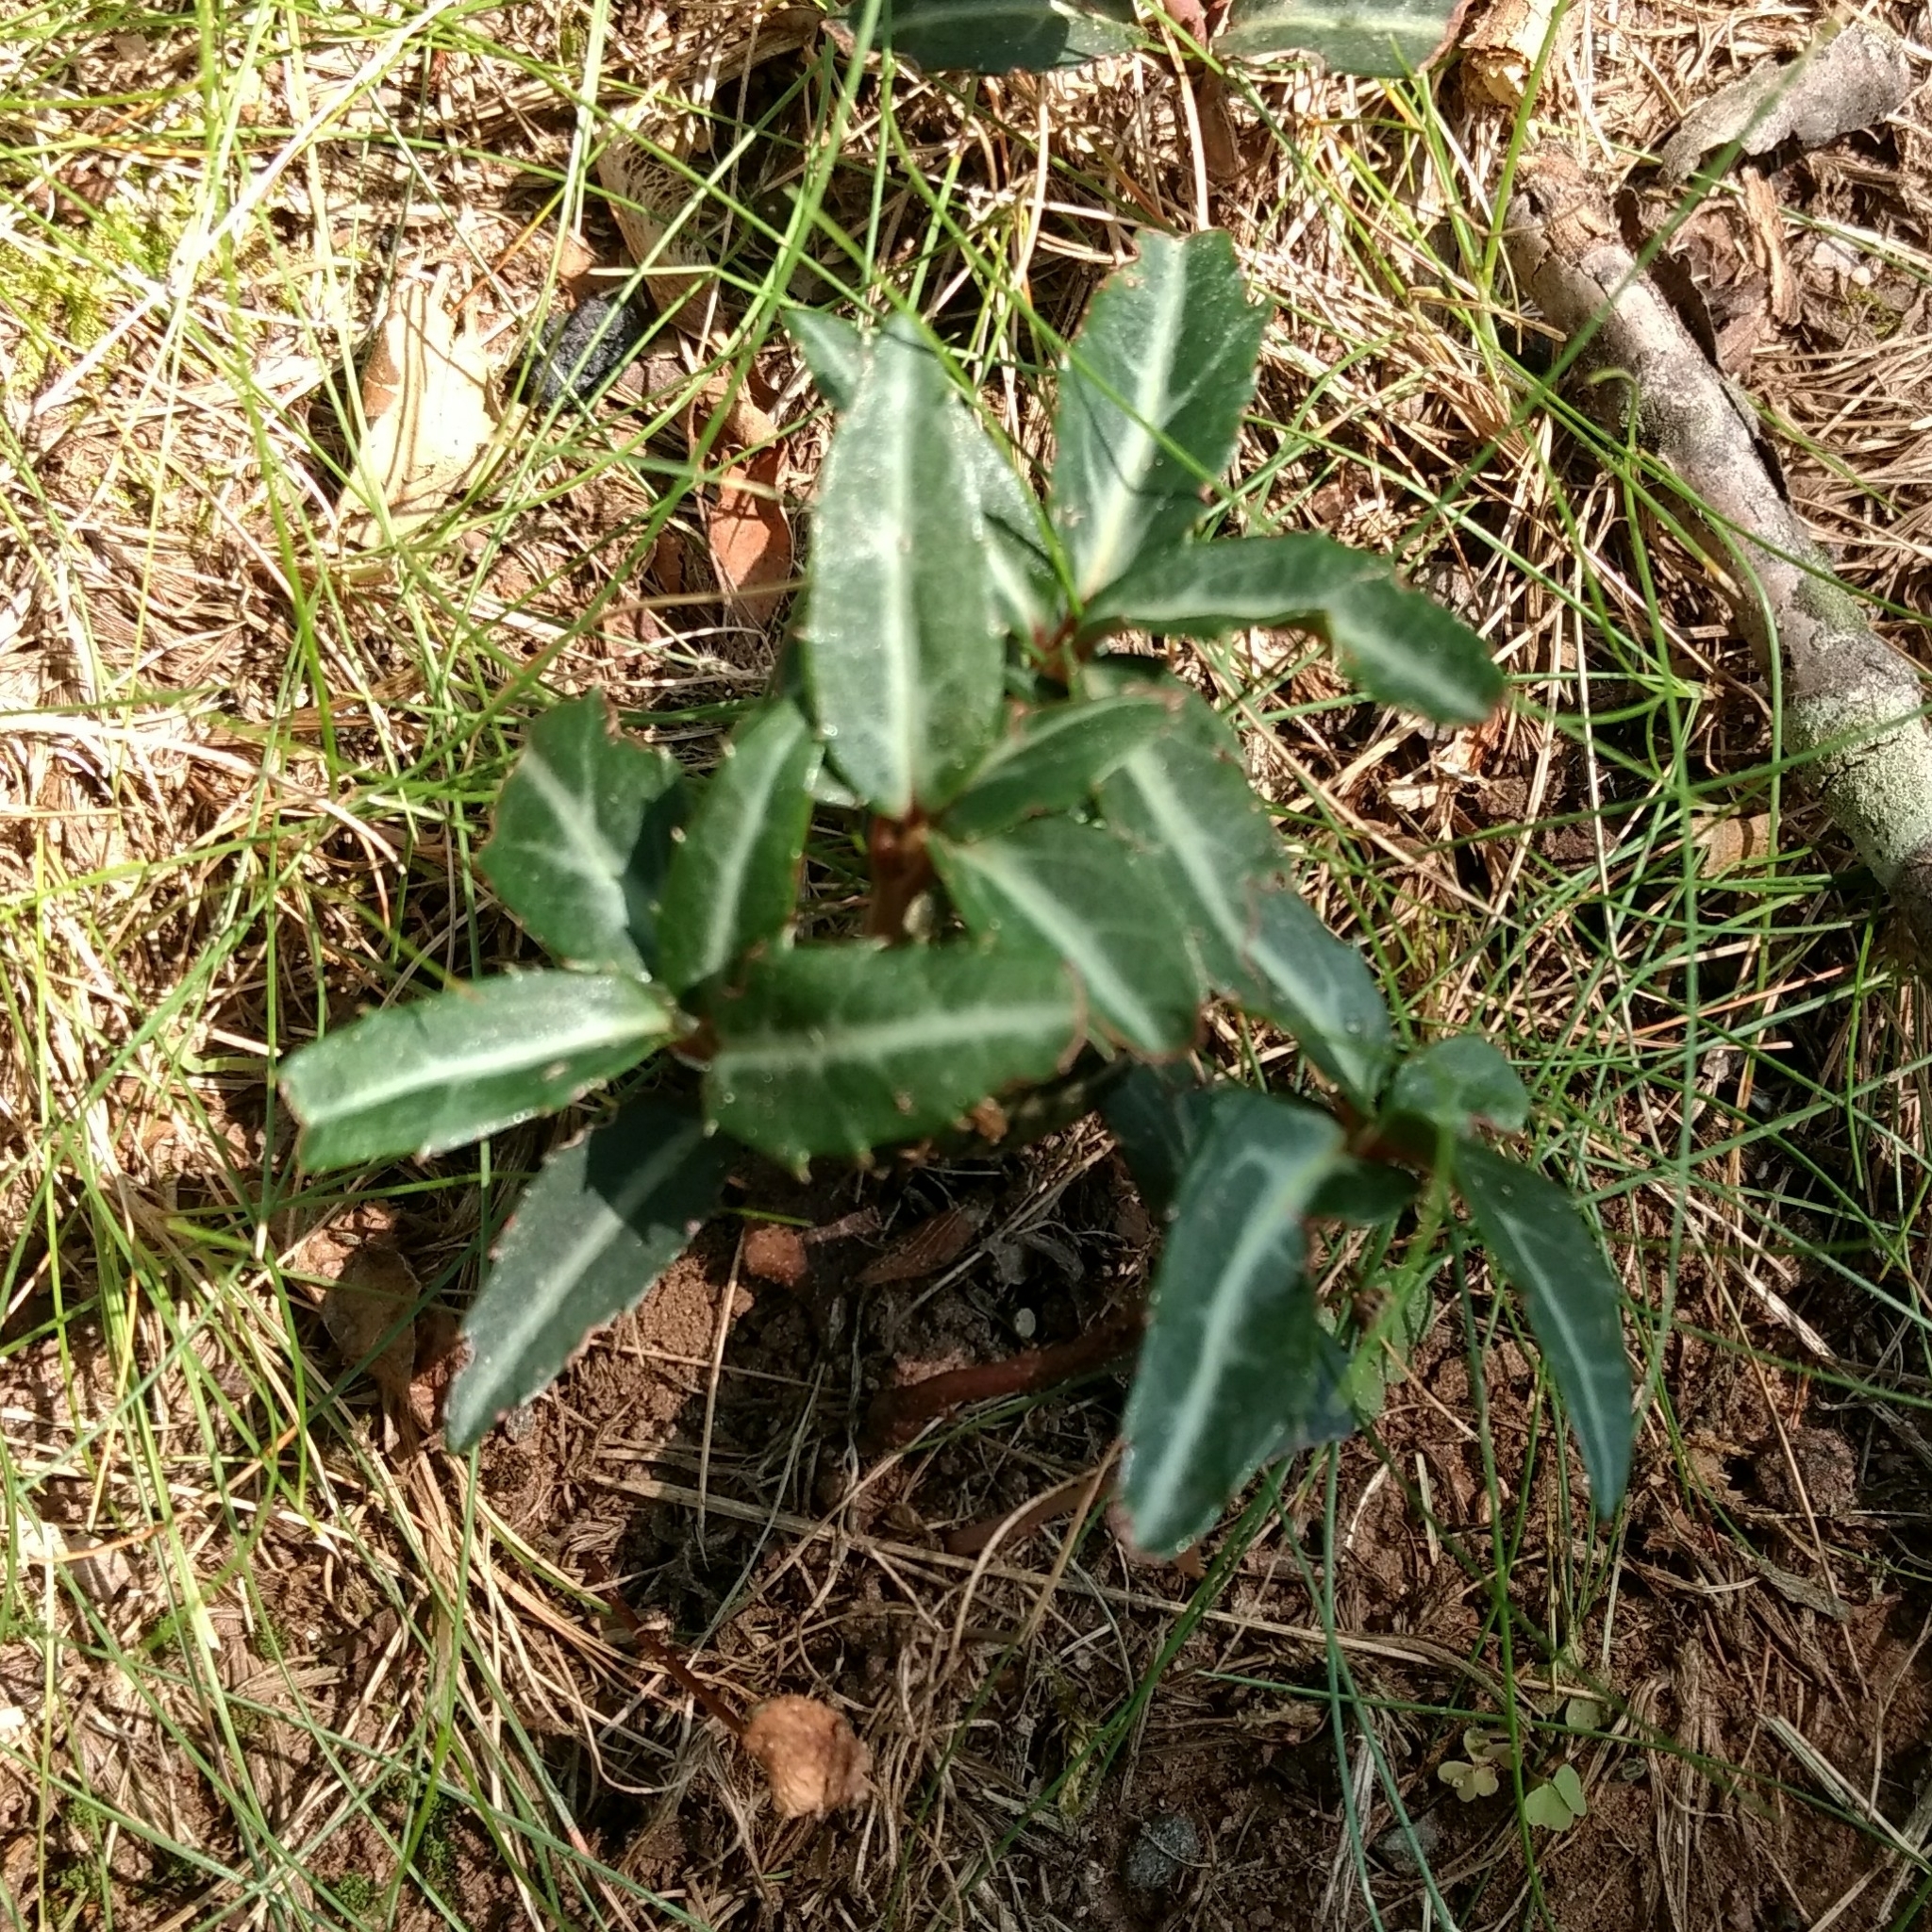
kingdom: Plantae
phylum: Tracheophyta
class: Magnoliopsida
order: Ericales
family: Ericaceae
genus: Chimaphila
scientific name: Chimaphila maculata
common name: Spotted pipsissewa
